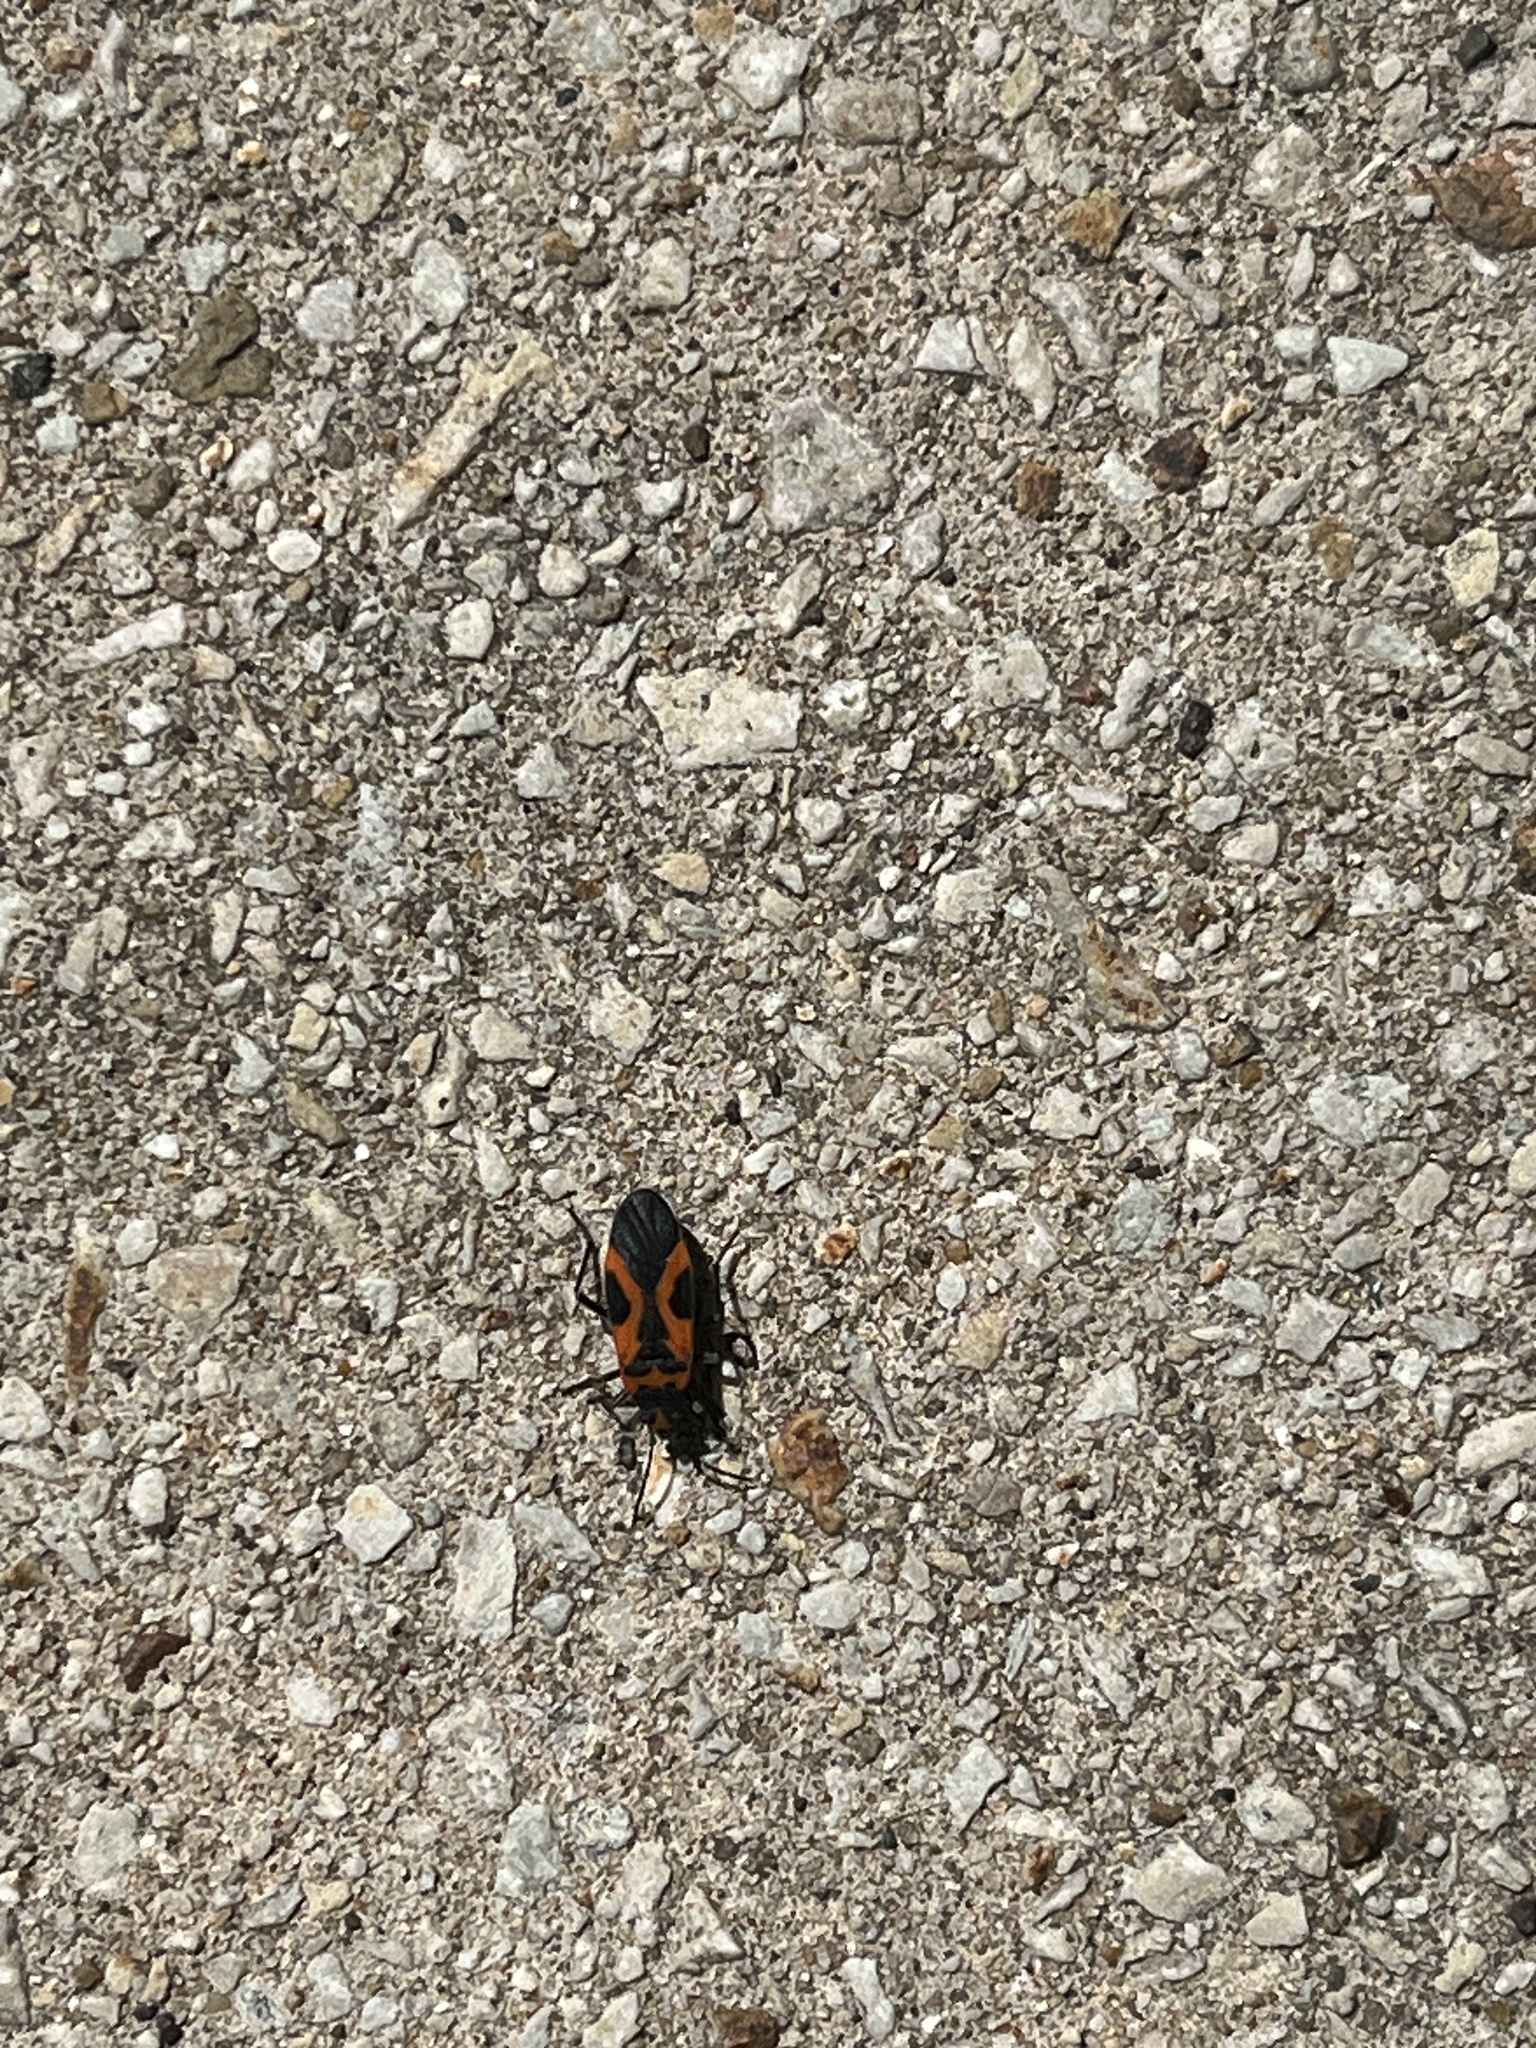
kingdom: Animalia
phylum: Arthropoda
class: Insecta
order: Hemiptera
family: Lygaeidae
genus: Lygaeus
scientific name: Lygaeus turcicus
